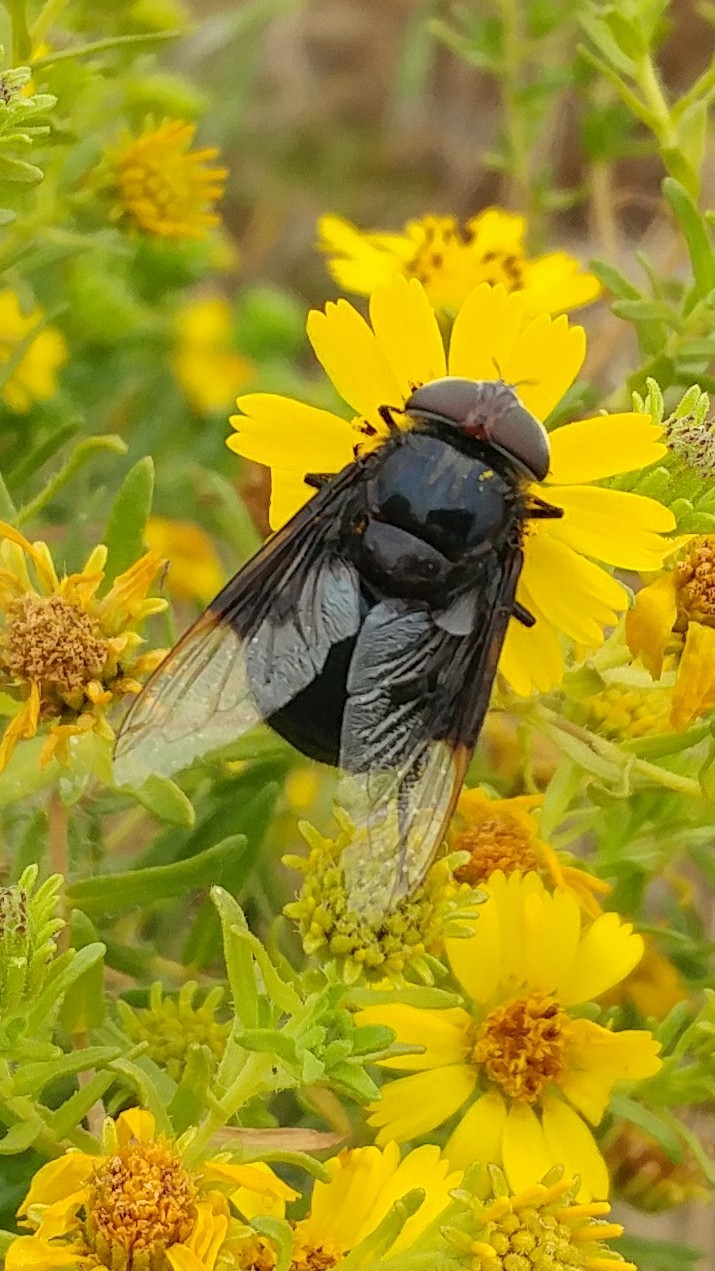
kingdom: Animalia
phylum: Arthropoda
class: Insecta
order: Diptera
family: Syrphidae
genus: Copestylum
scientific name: Copestylum
